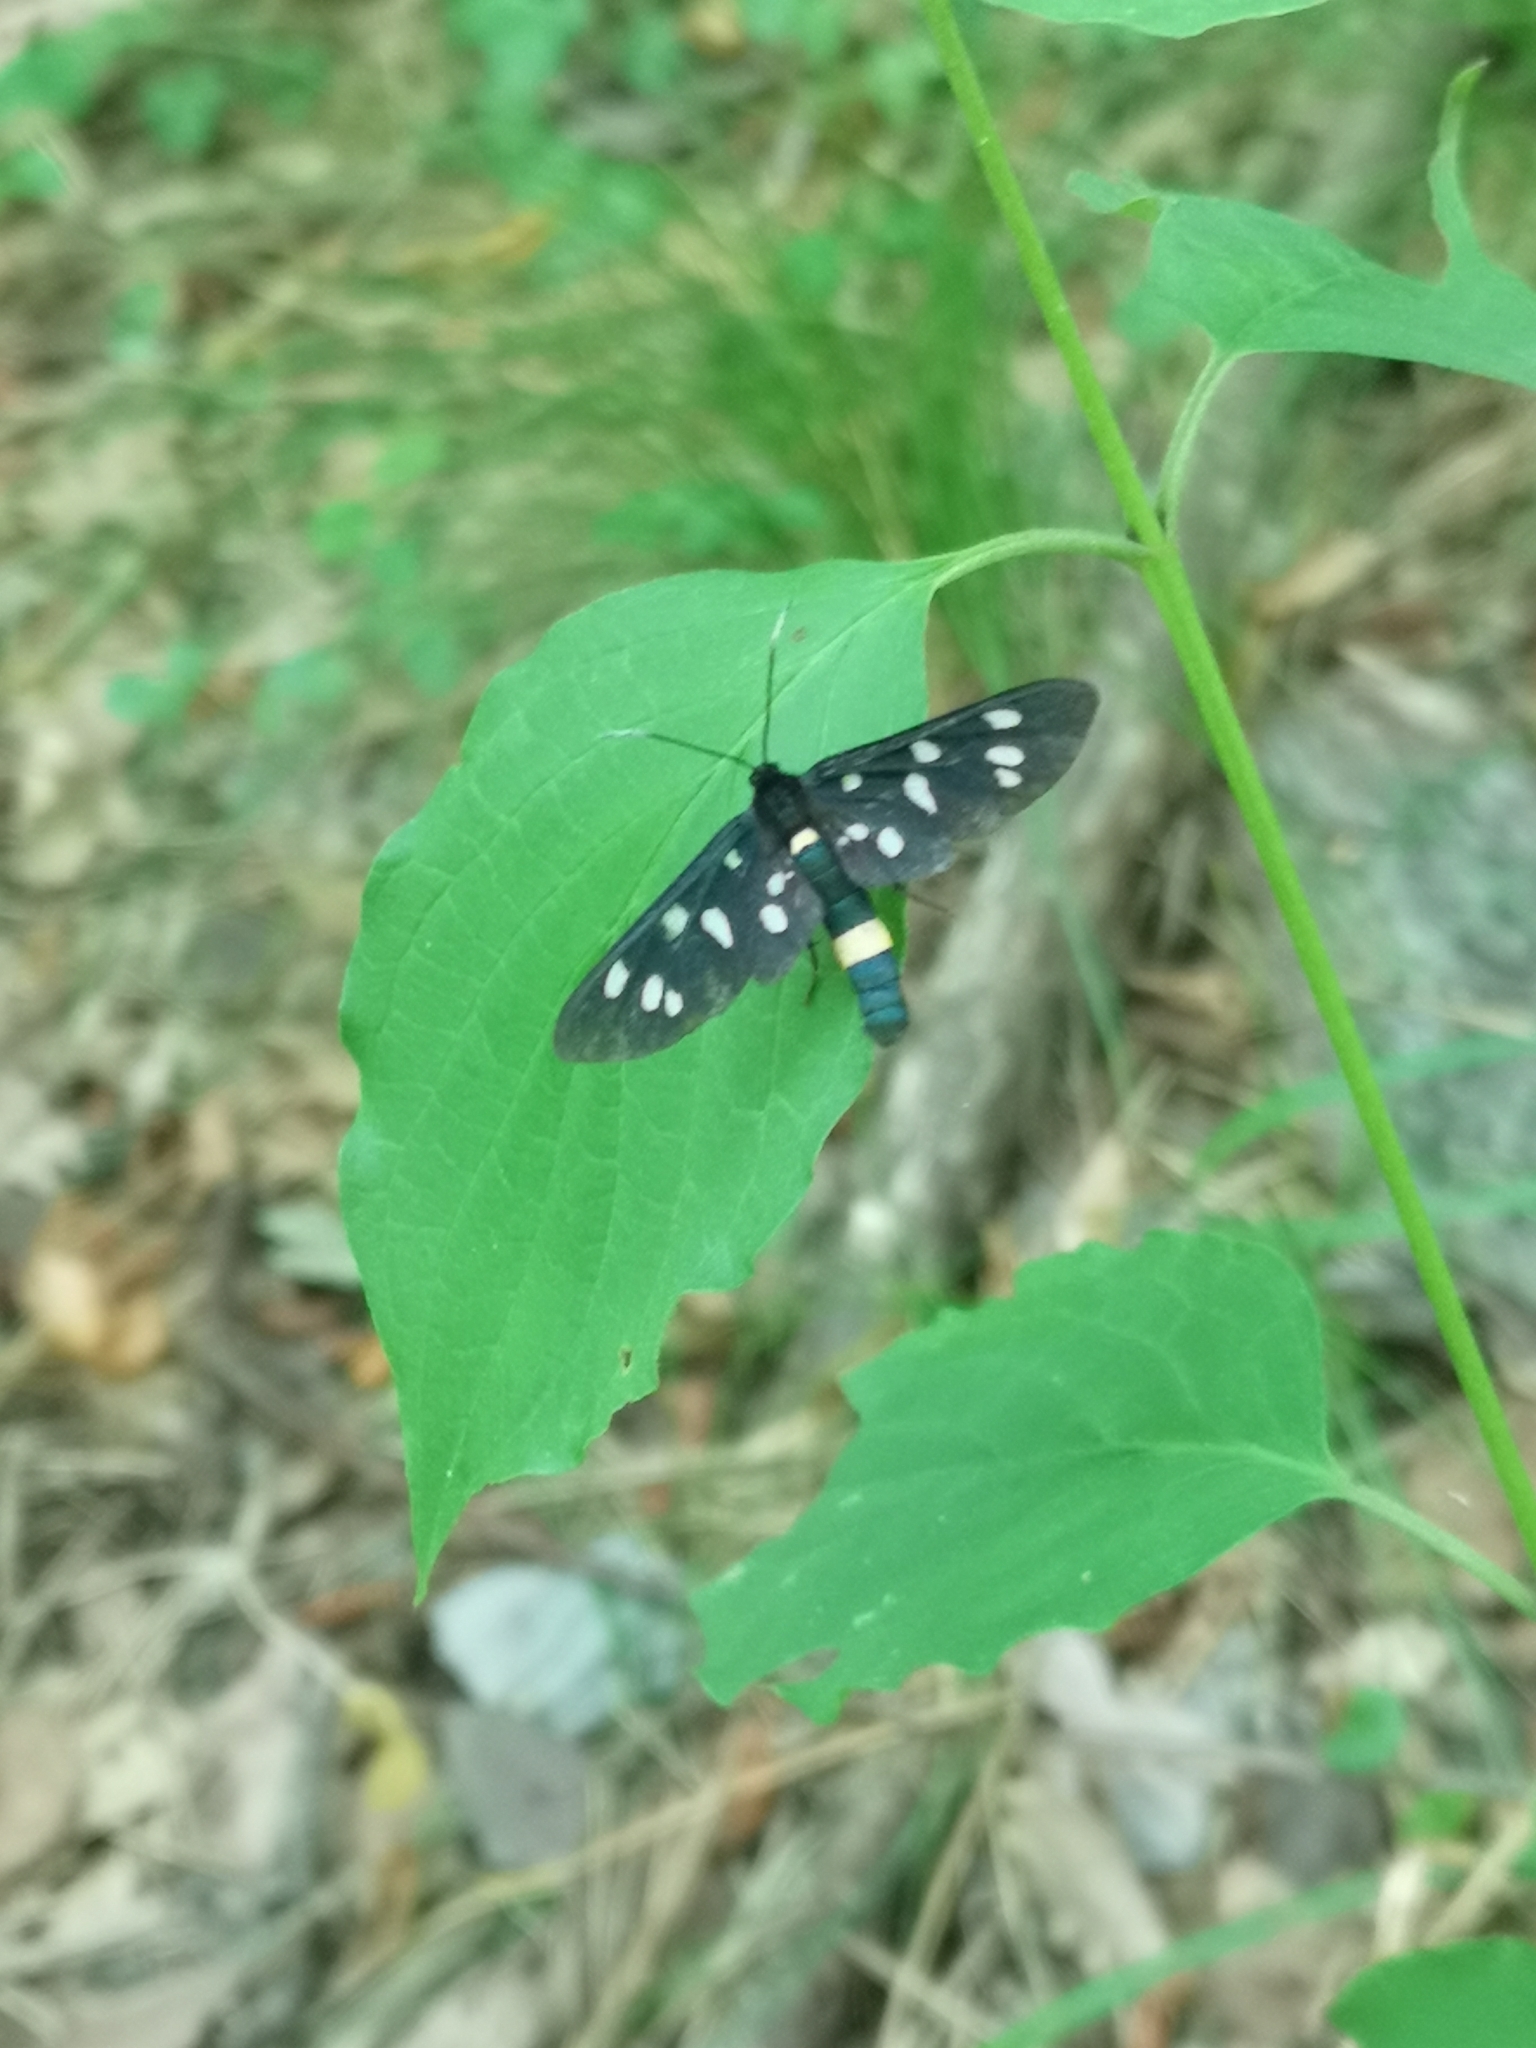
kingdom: Animalia
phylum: Arthropoda
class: Insecta
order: Lepidoptera
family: Erebidae
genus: Amata
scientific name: Amata phegea
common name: Nine-spotted
